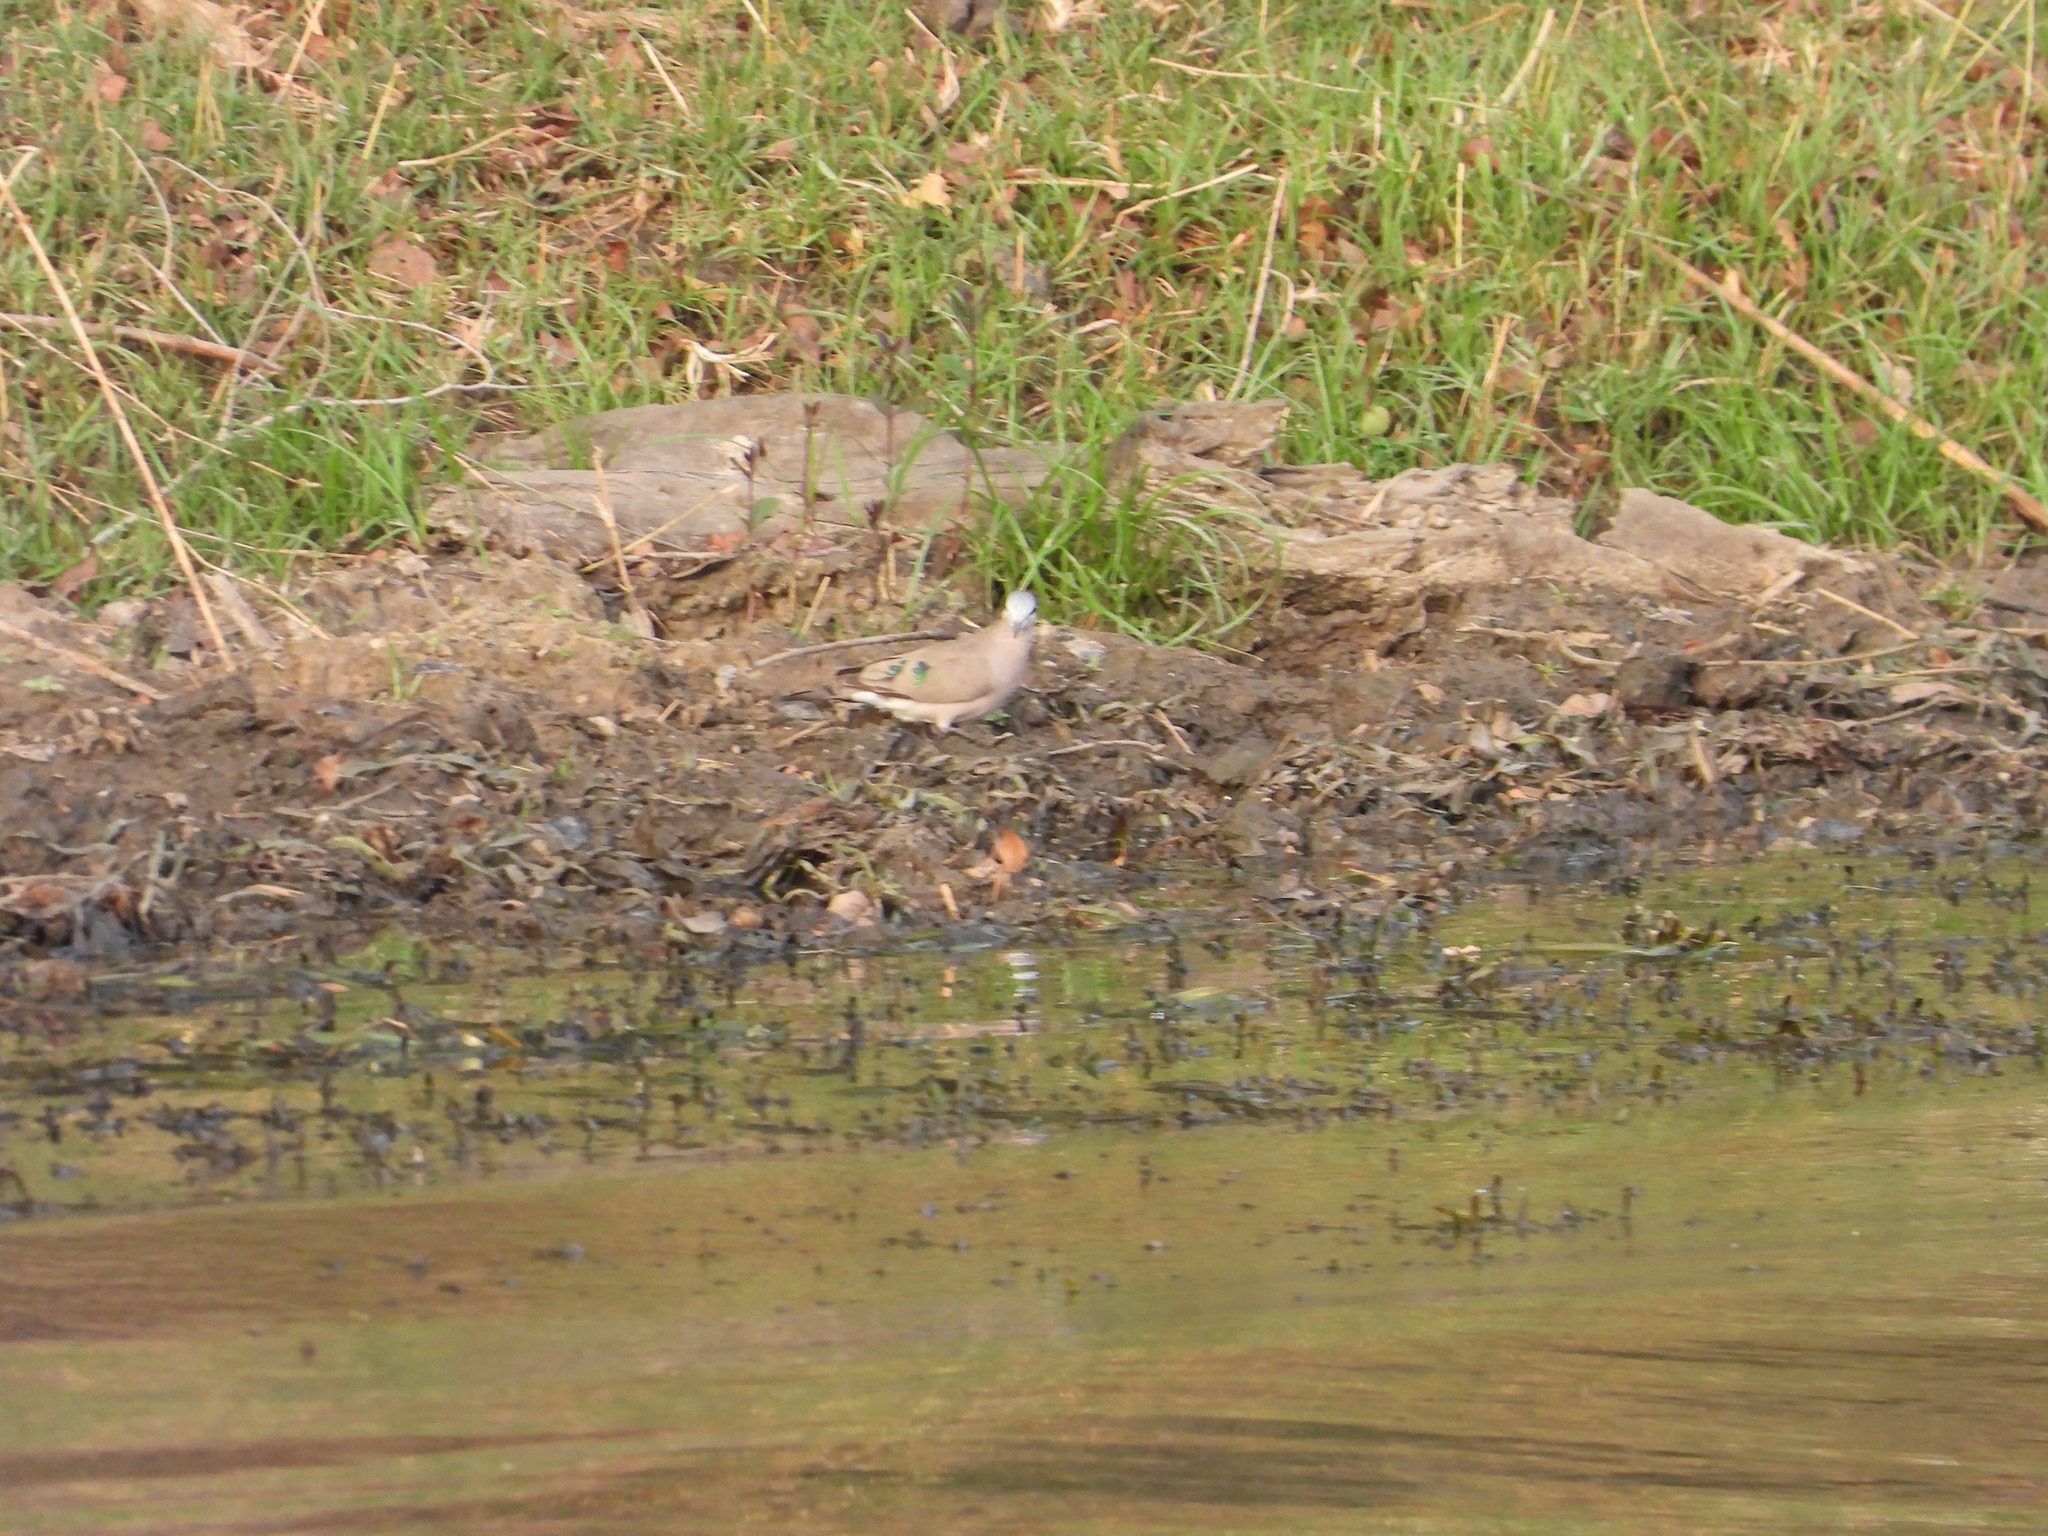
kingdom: Animalia
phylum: Chordata
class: Aves
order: Columbiformes
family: Columbidae
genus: Turtur
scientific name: Turtur chalcospilos
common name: Emerald-spotted wood dove
